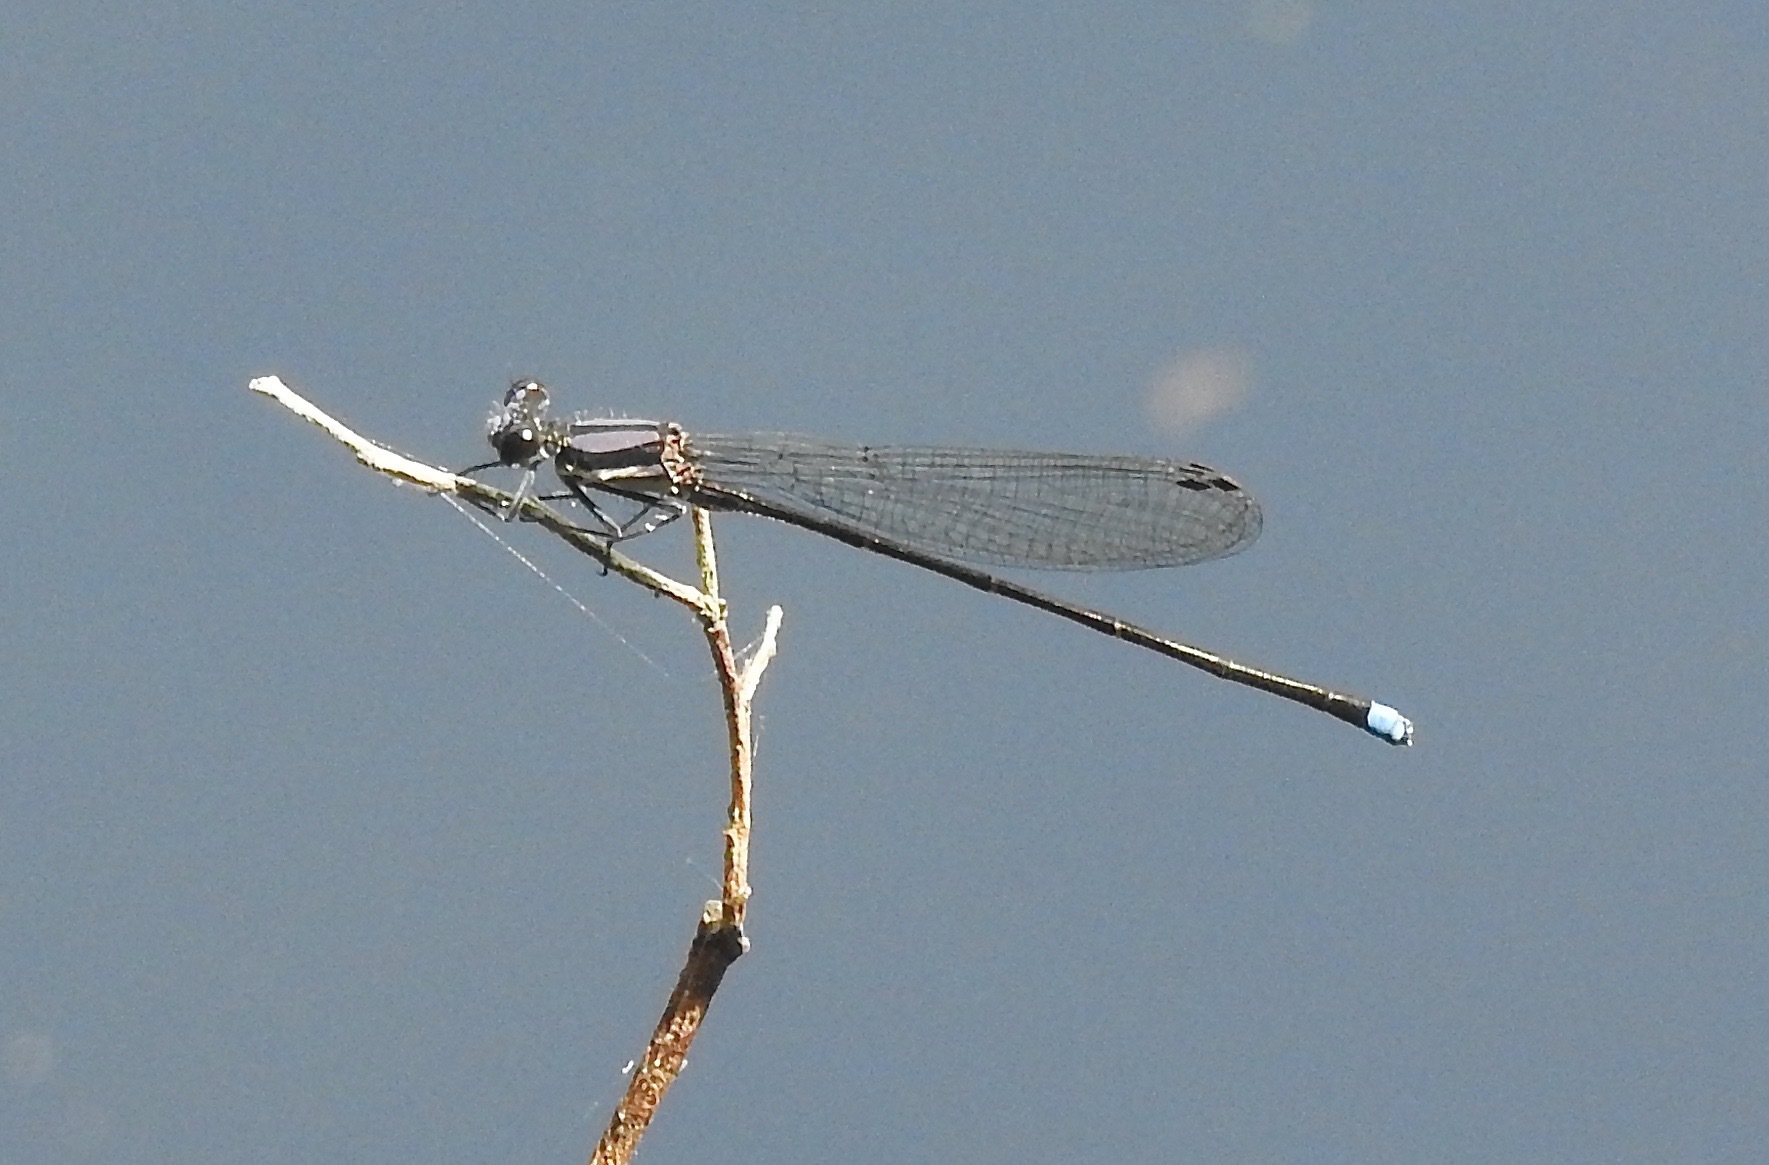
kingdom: Animalia
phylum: Arthropoda
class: Insecta
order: Odonata
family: Coenagrionidae
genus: Argia
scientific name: Argia tibialis
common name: Blue-tipped dancer
